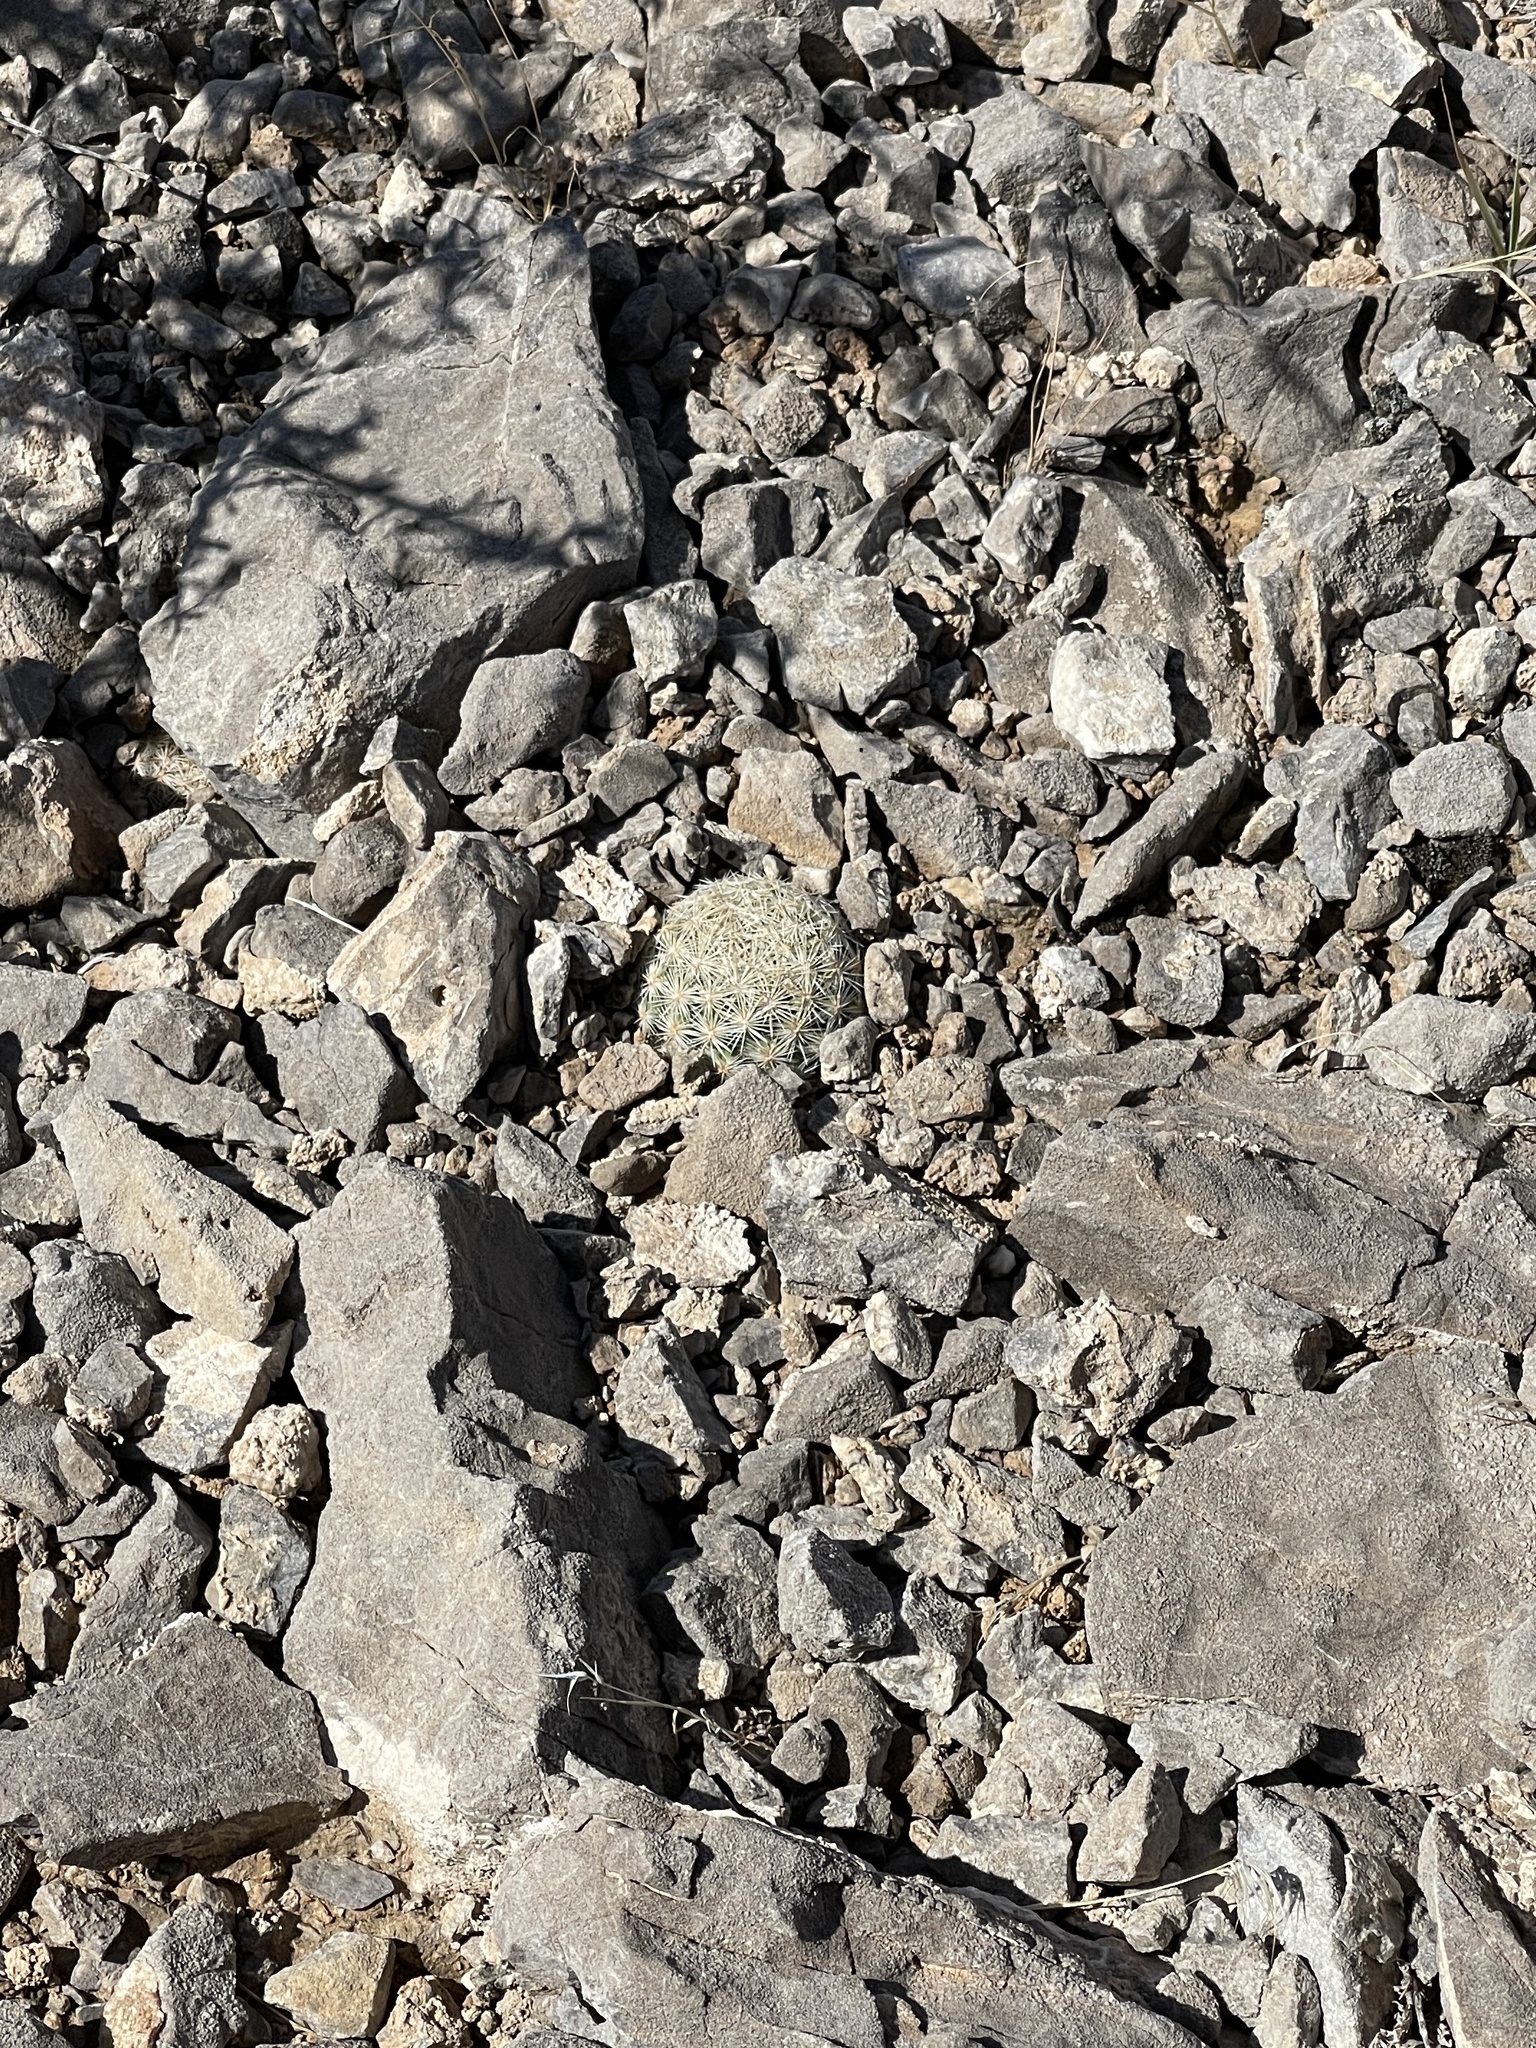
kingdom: Plantae
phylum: Tracheophyta
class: Magnoliopsida
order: Caryophyllales
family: Cactaceae
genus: Pelecyphora
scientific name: Pelecyphora vivipara
